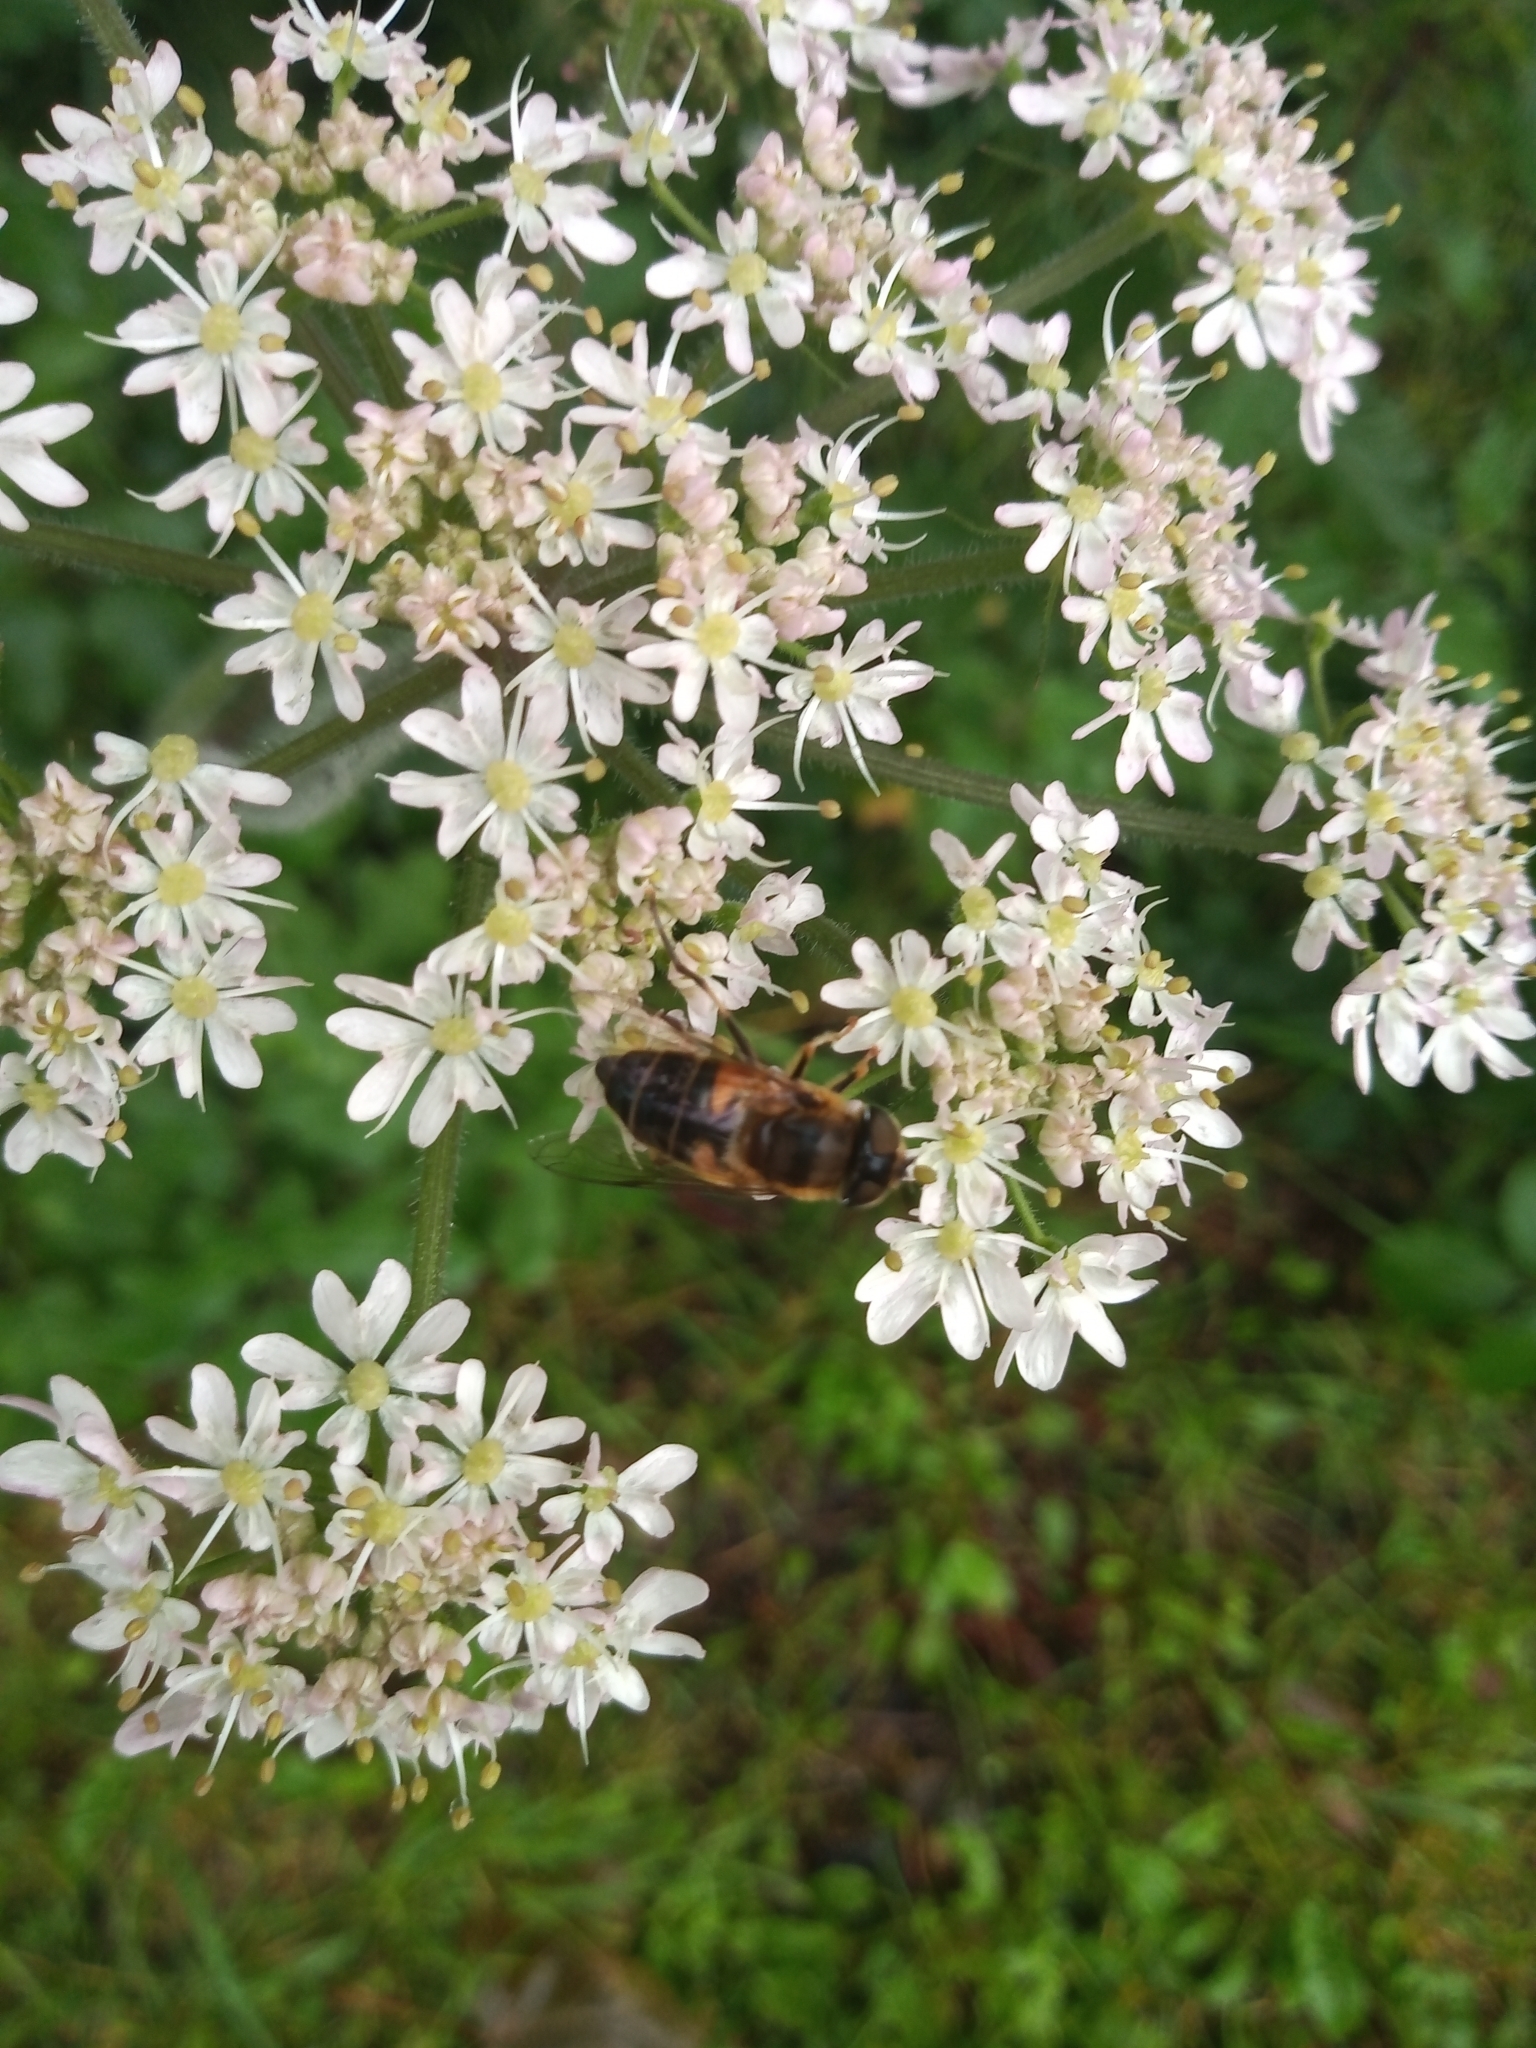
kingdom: Animalia
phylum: Arthropoda
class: Insecta
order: Diptera
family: Syrphidae
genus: Eristalis
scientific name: Eristalis pertinax
